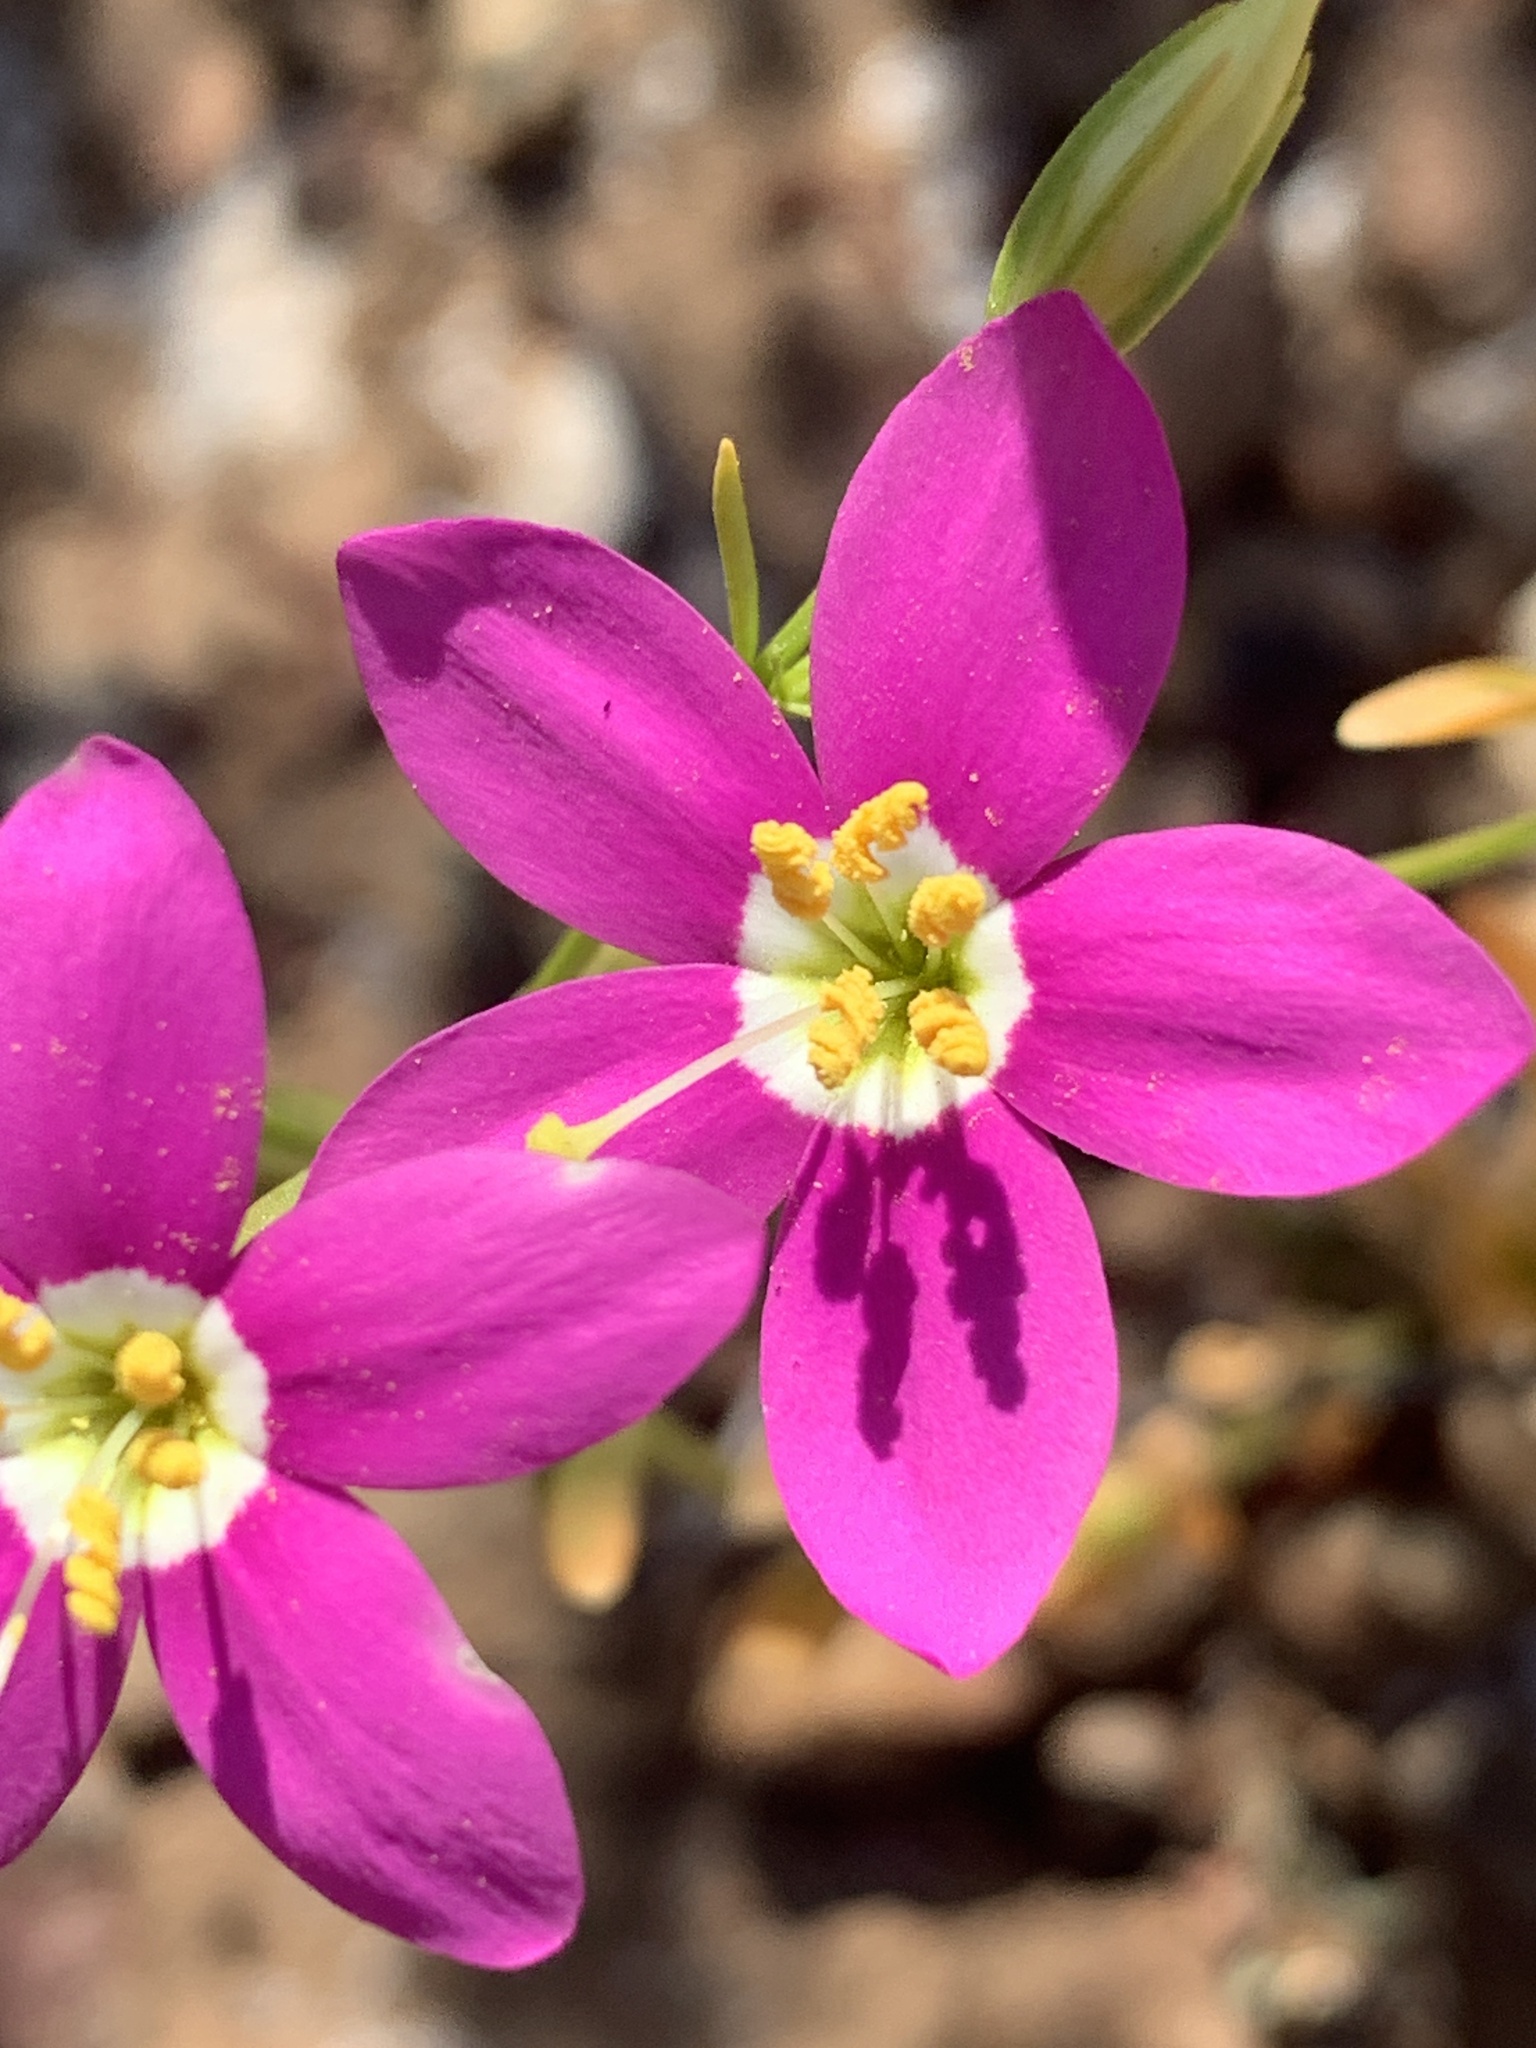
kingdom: Plantae
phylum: Tracheophyta
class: Magnoliopsida
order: Gentianales
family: Gentianaceae
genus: Zeltnera
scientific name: Zeltnera venusta
